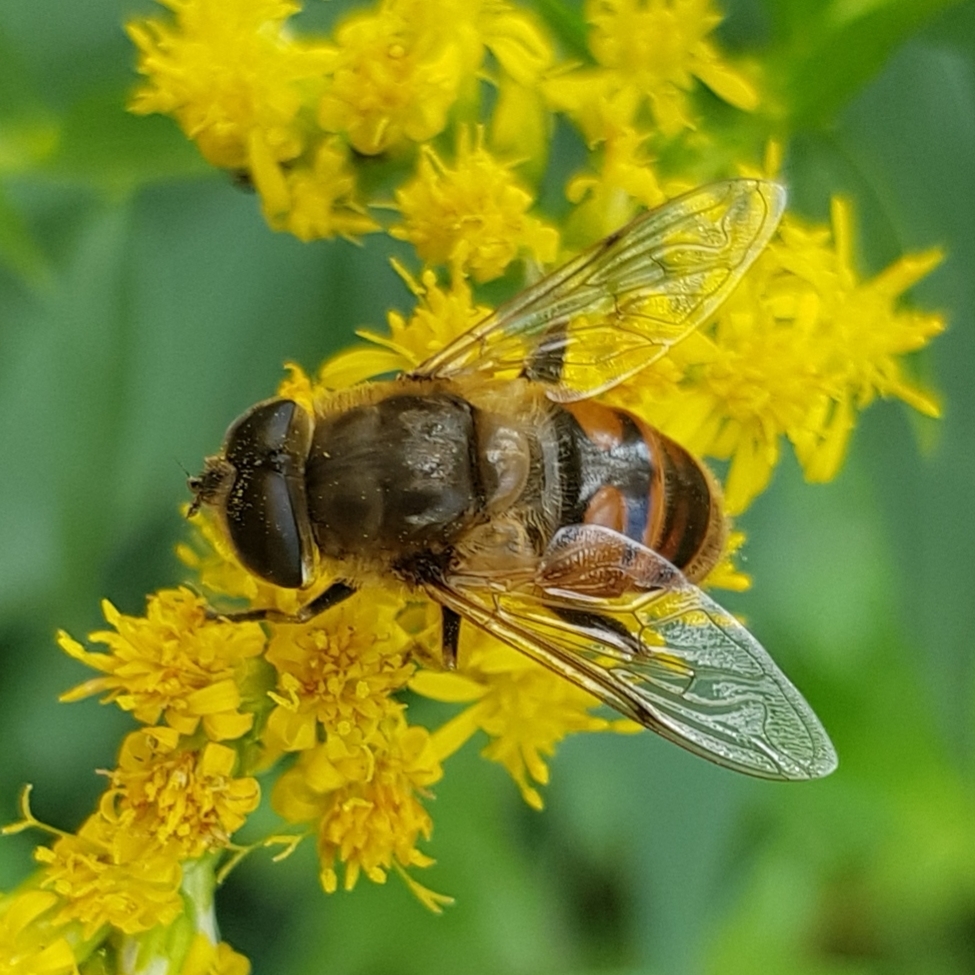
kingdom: Animalia
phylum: Arthropoda
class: Insecta
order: Diptera
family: Syrphidae
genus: Eristalis
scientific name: Eristalis tenax
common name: Drone fly
